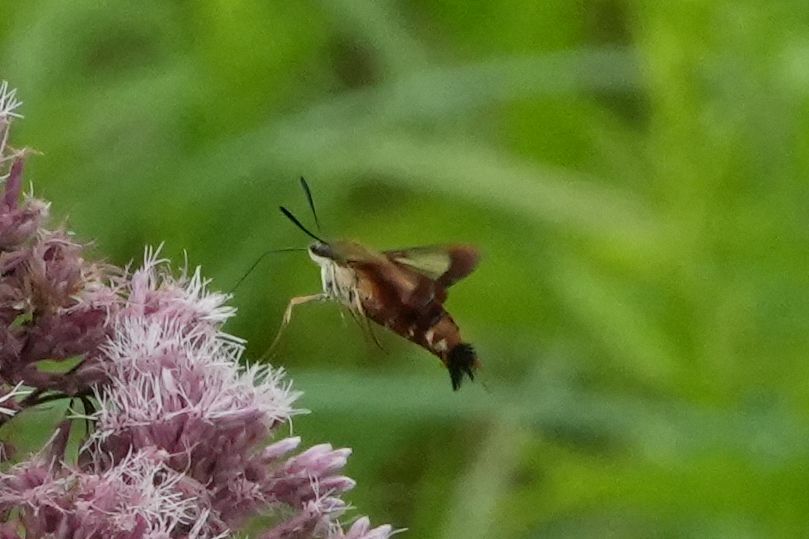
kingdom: Animalia
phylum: Arthropoda
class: Insecta
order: Lepidoptera
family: Sphingidae
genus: Hemaris
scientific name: Hemaris thysbe
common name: Common clear-wing
